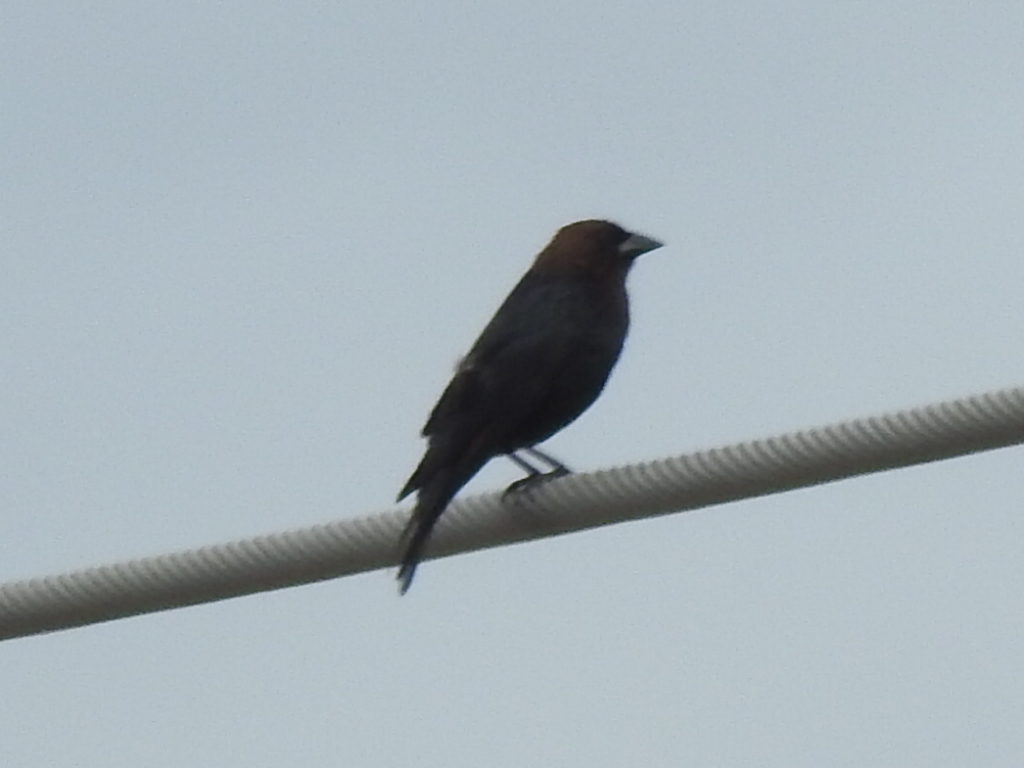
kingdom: Animalia
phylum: Chordata
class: Aves
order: Passeriformes
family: Icteridae
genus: Molothrus
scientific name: Molothrus ater
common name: Brown-headed cowbird
